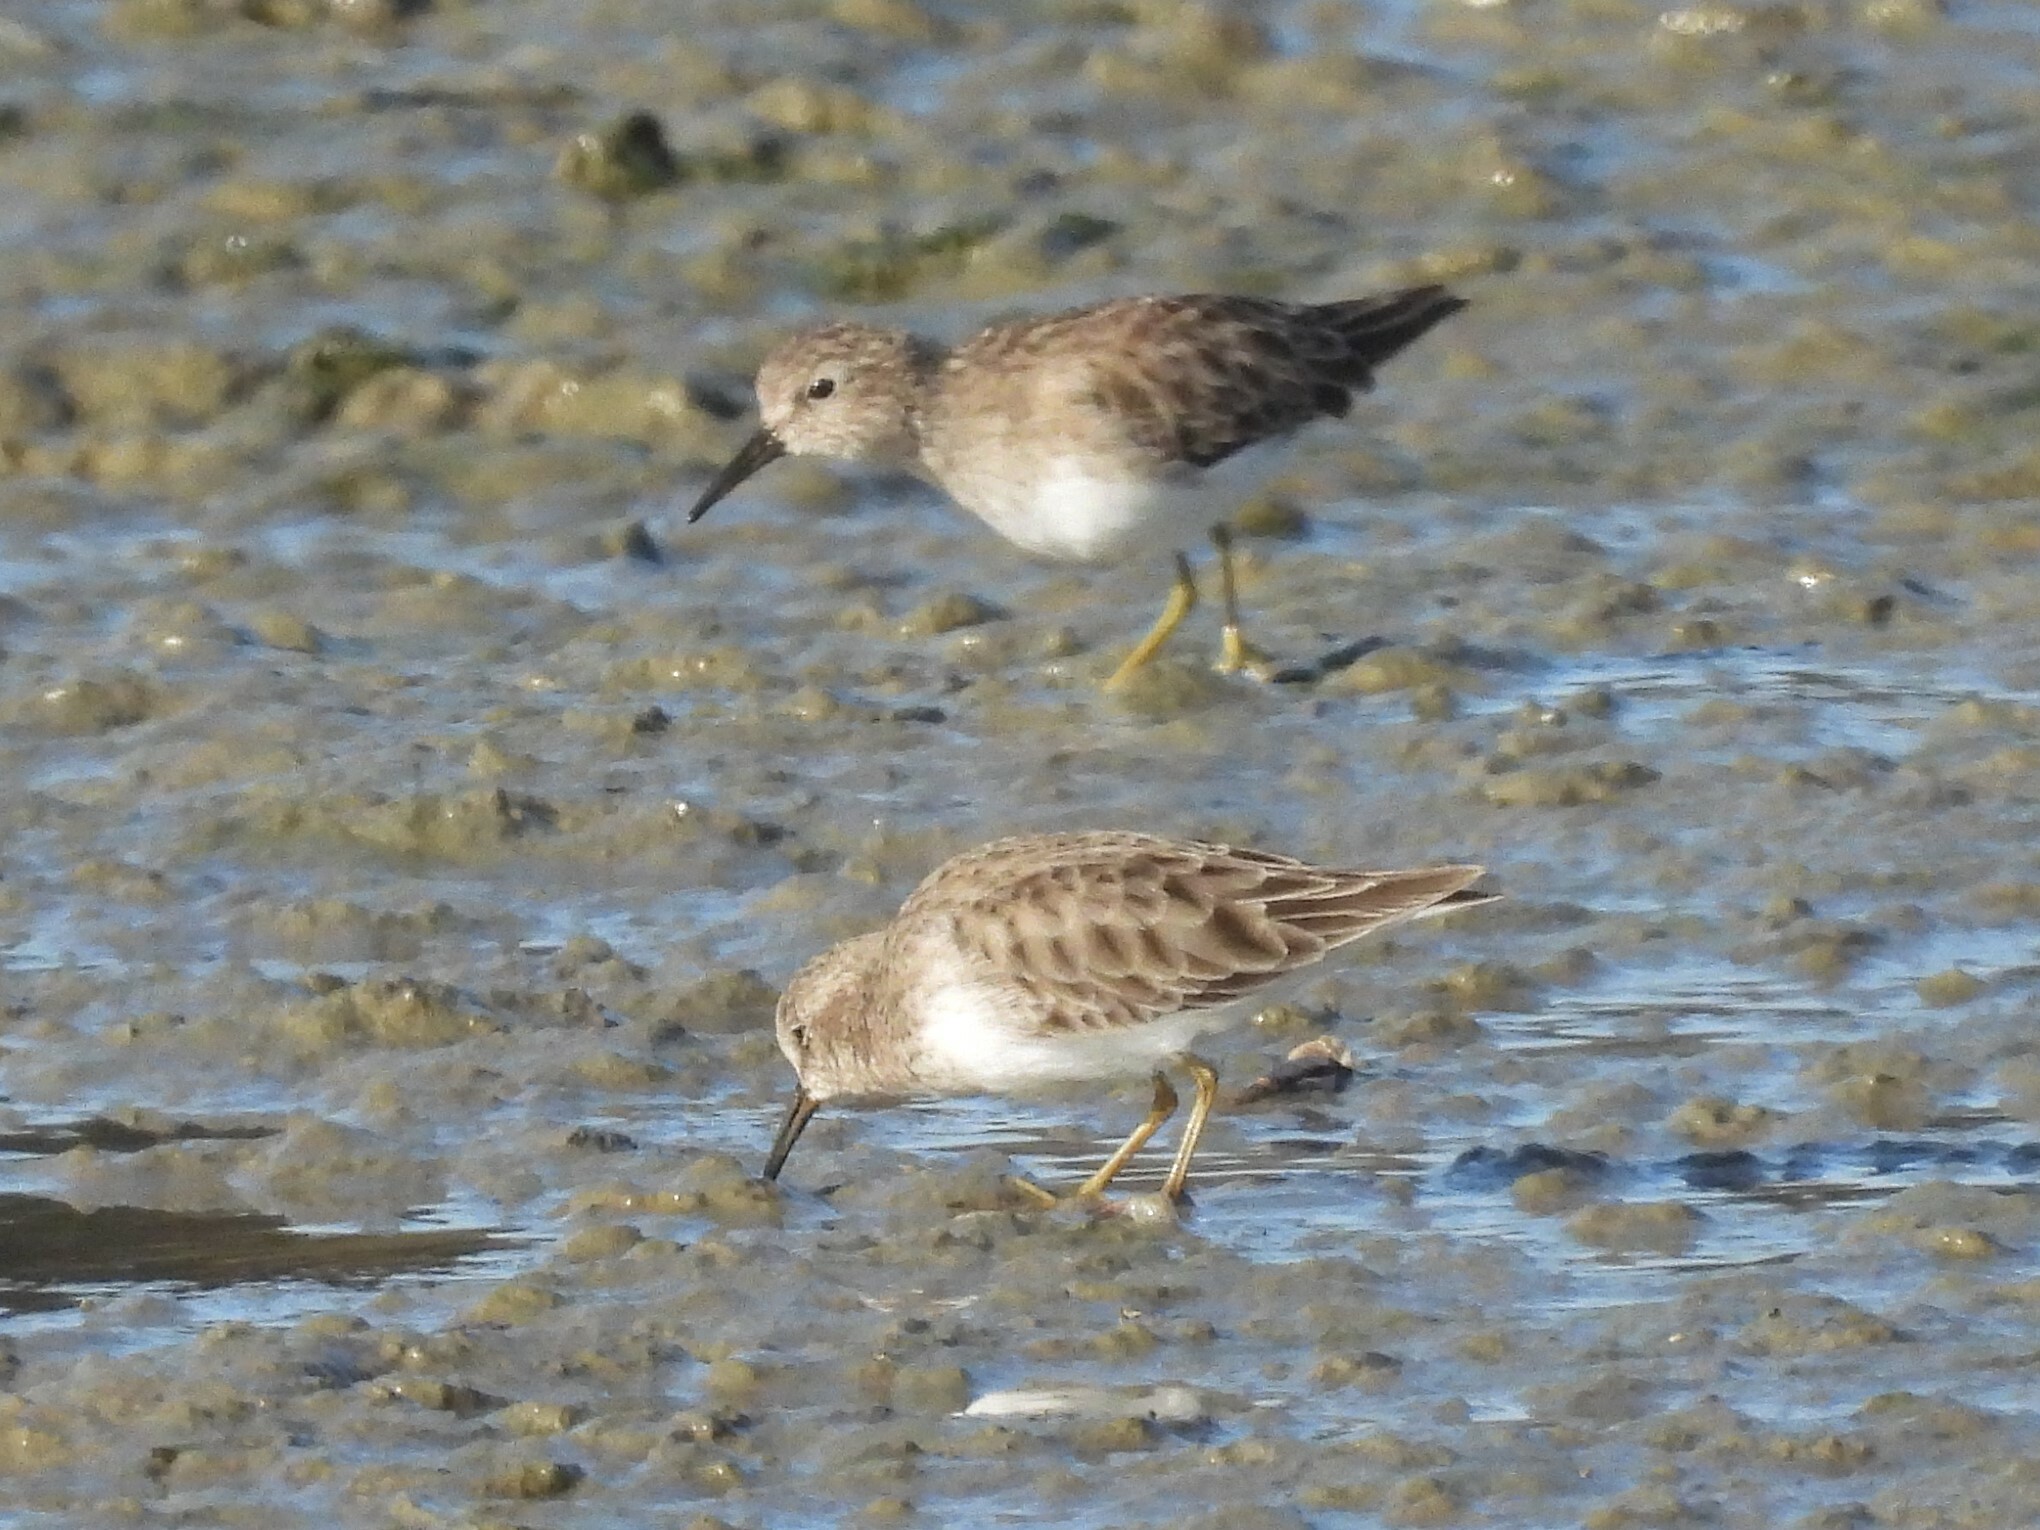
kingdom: Animalia
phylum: Chordata
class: Aves
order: Charadriiformes
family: Scolopacidae
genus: Calidris
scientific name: Calidris minutilla
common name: Least sandpiper
